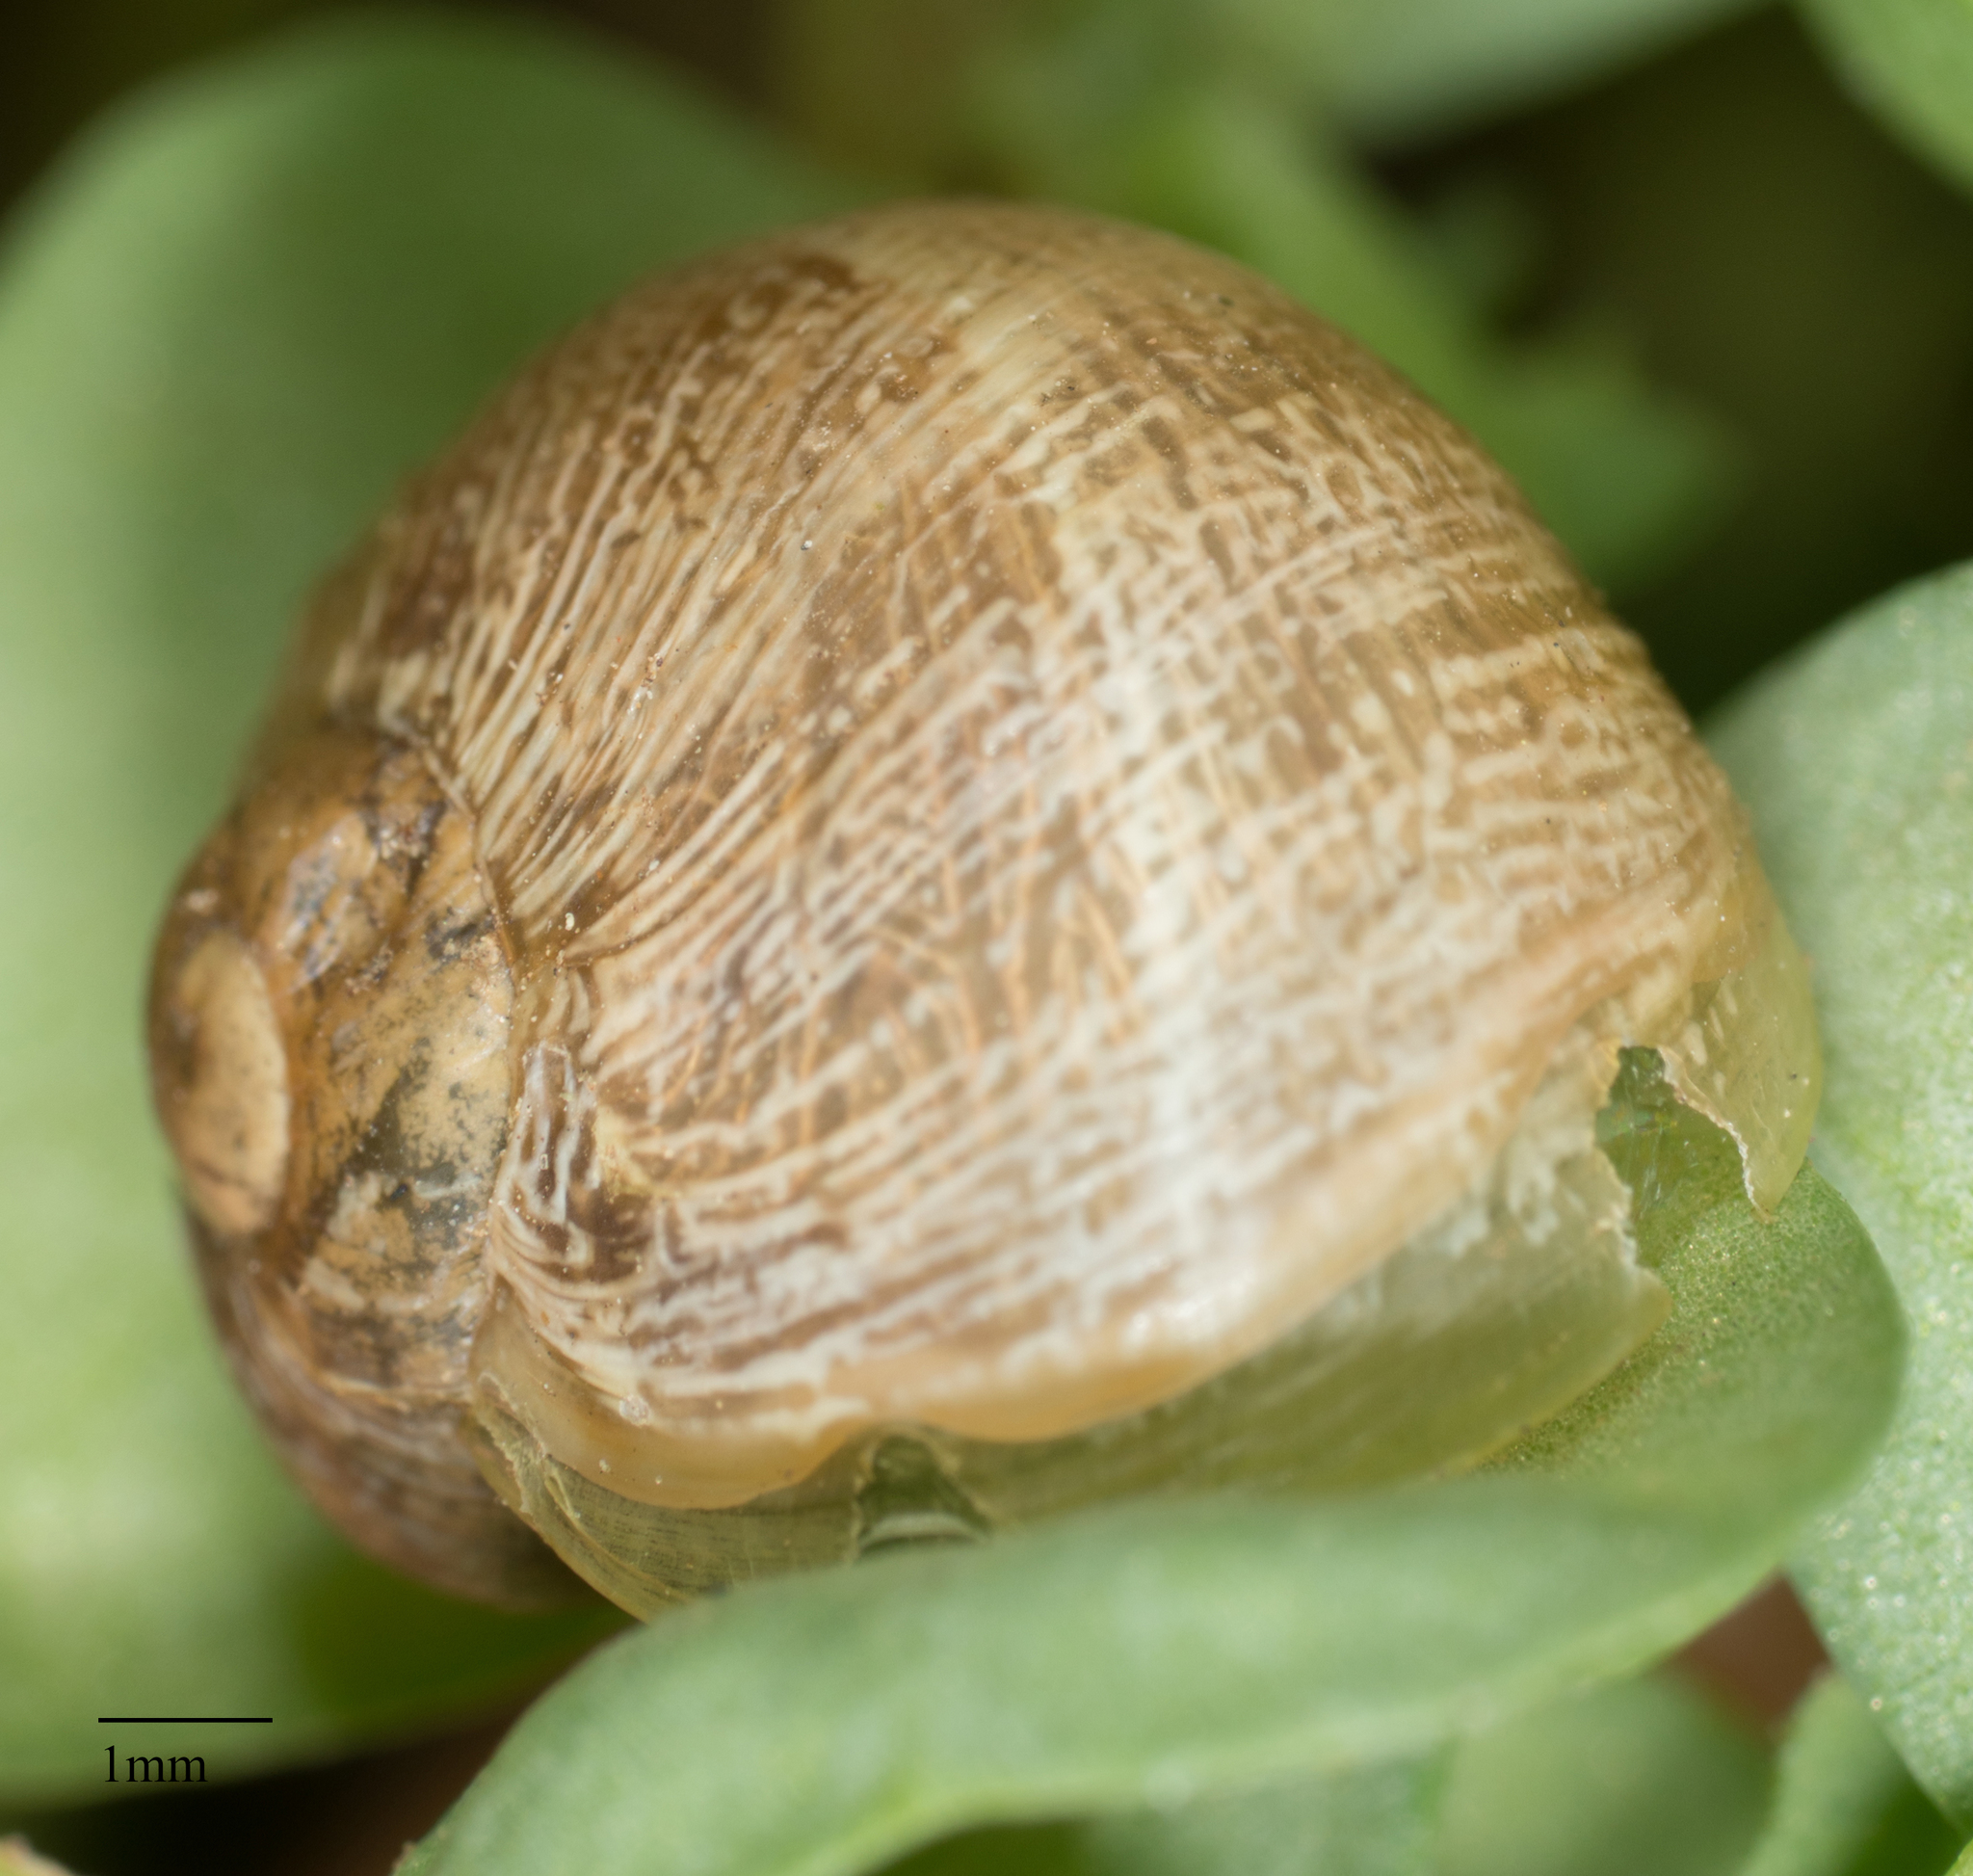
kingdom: Animalia
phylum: Mollusca
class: Gastropoda
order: Stylommatophora
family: Helicidae
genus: Cornu
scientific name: Cornu aspersum
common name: Brown garden snail
